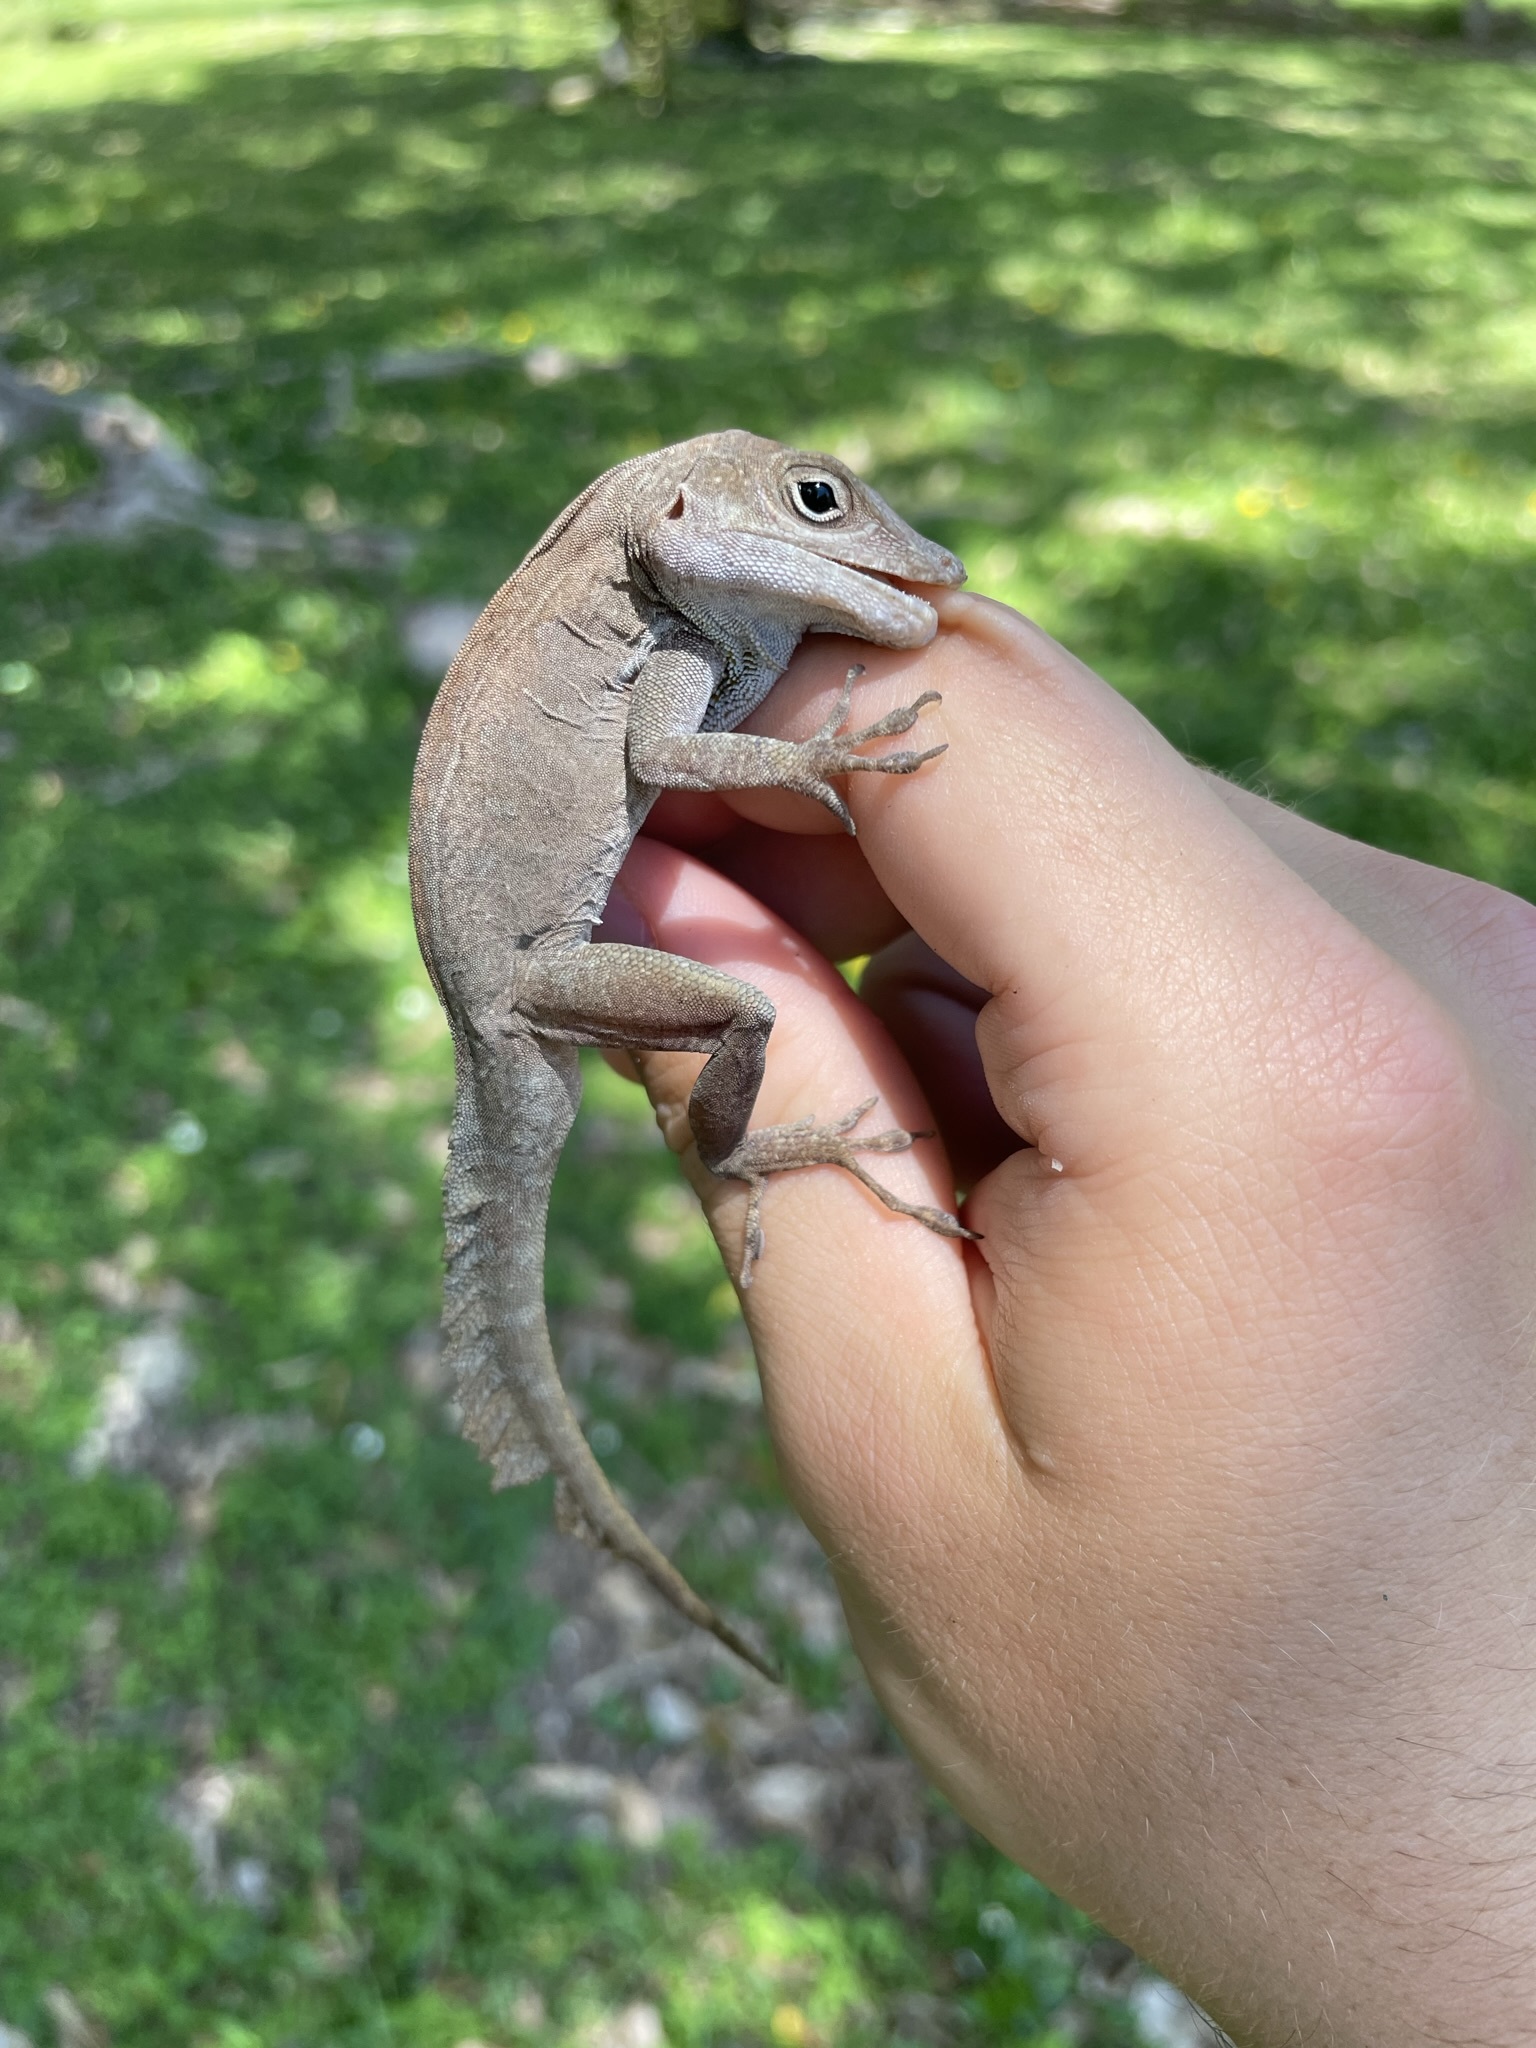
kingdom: Animalia
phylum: Chordata
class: Squamata
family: Dactyloidae
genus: Anolis
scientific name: Anolis cristatellus
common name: Crested anole
